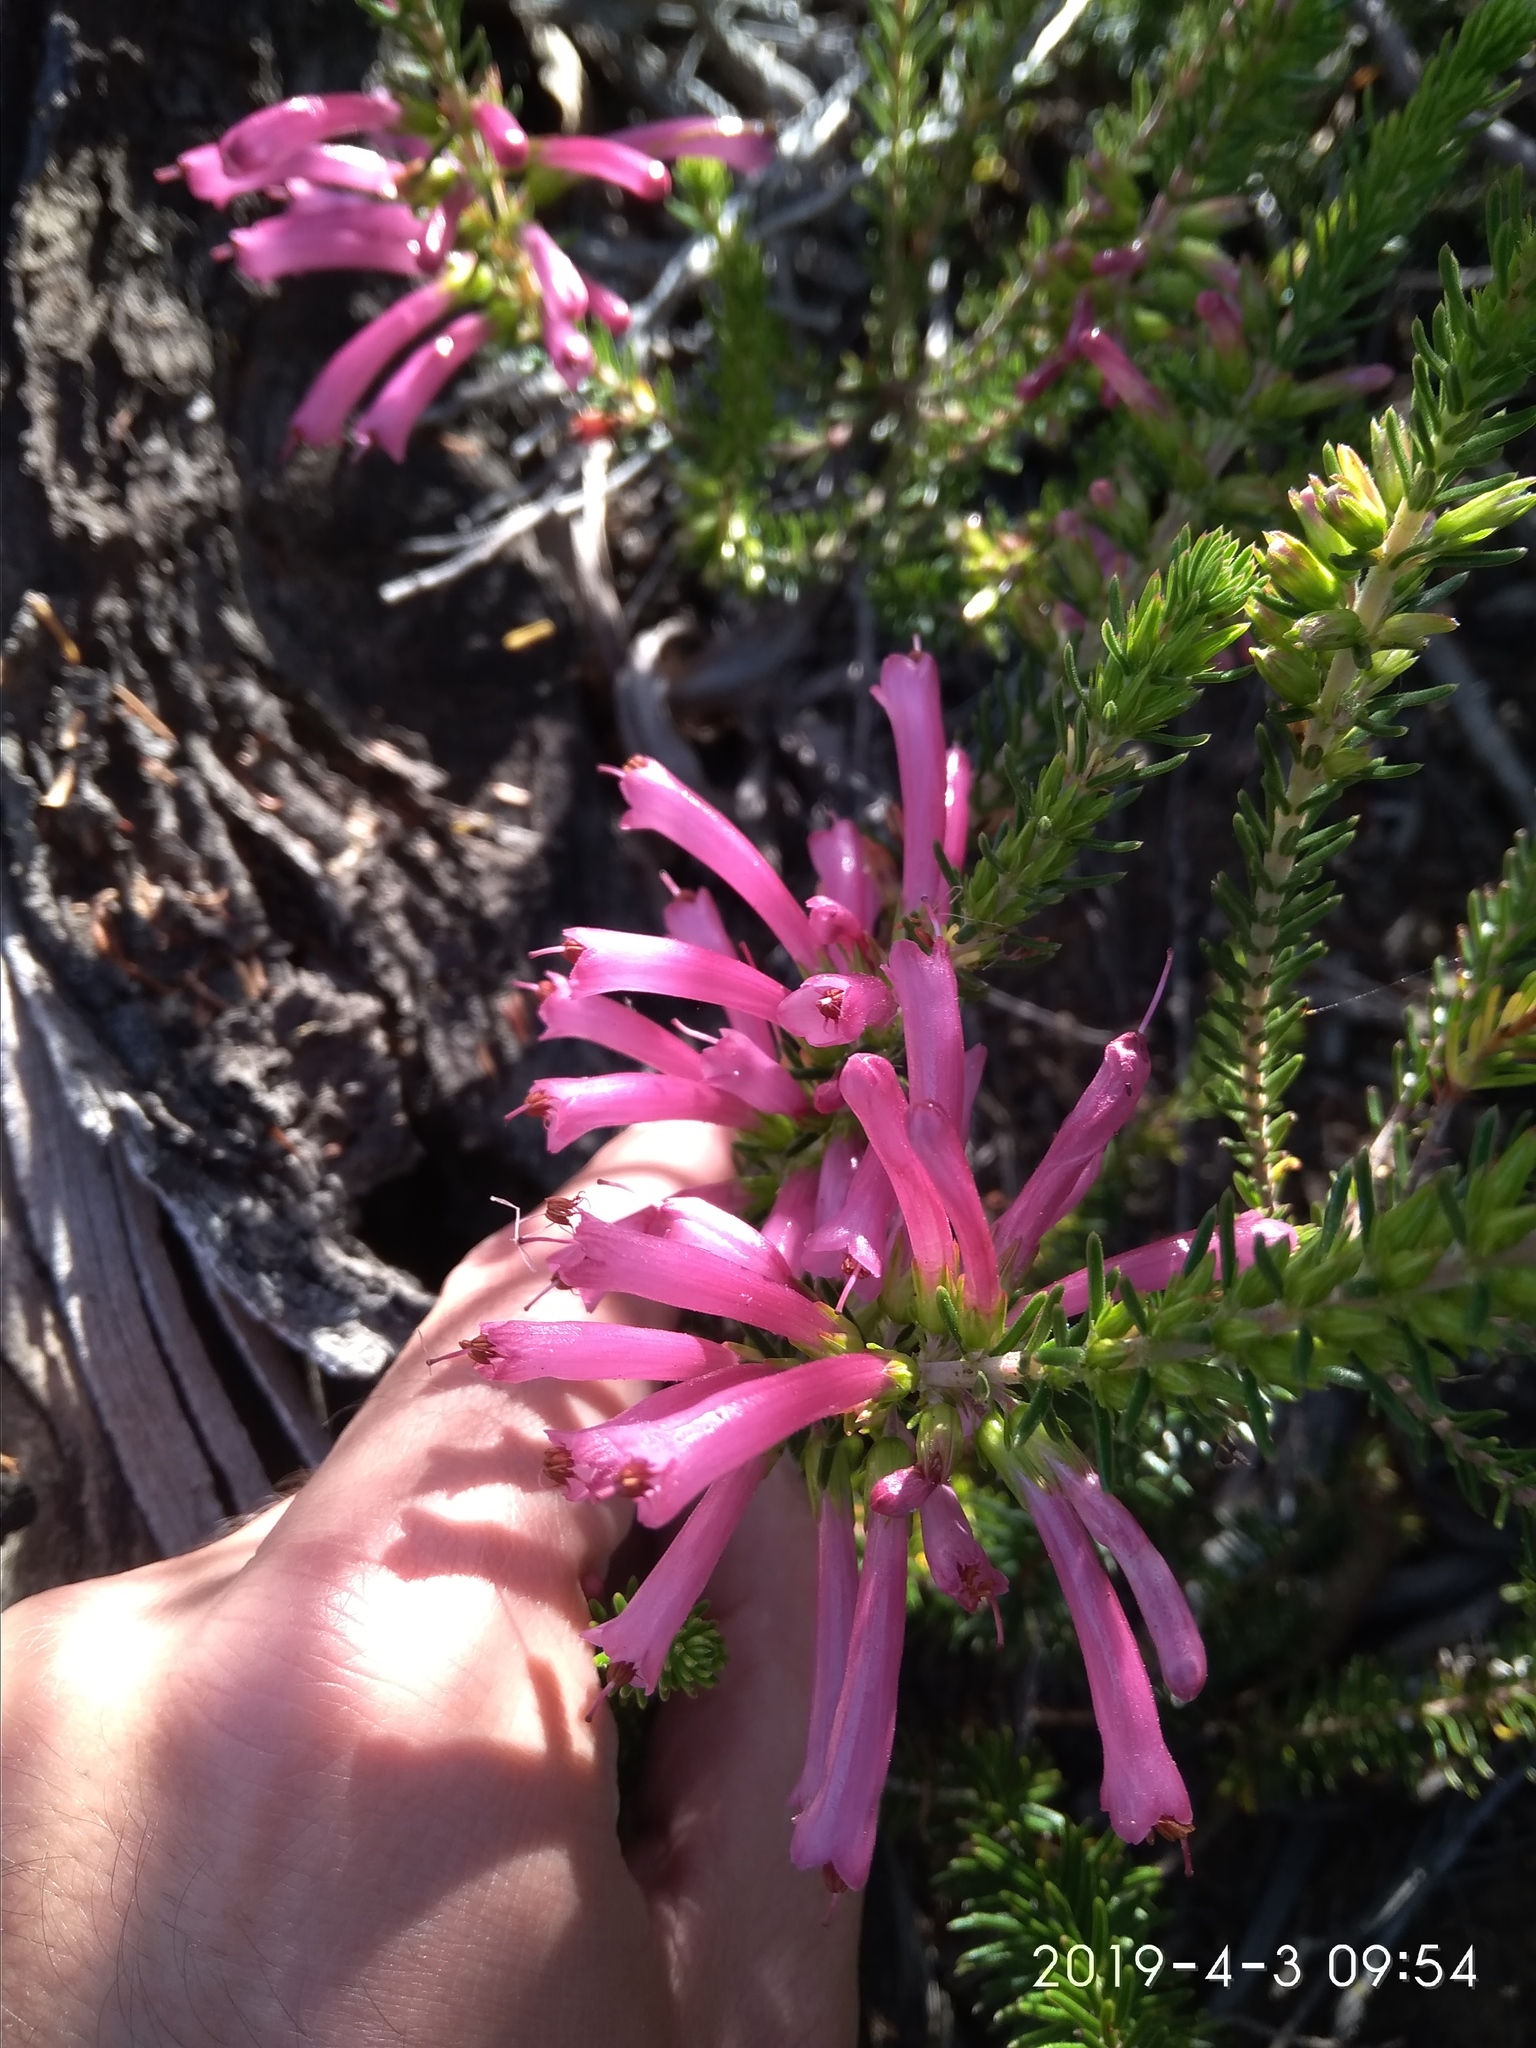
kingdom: Plantae
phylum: Tracheophyta
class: Magnoliopsida
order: Ericales
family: Ericaceae
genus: Erica
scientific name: Erica abietina
